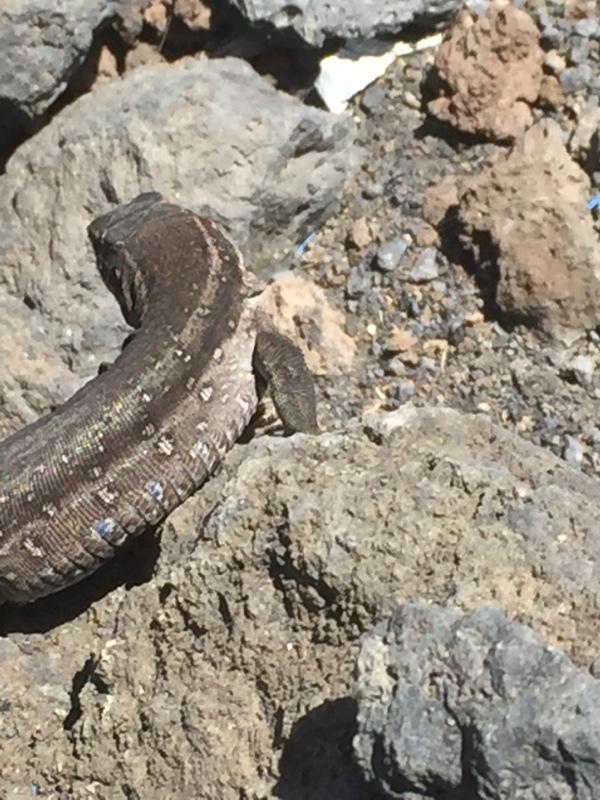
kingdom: Animalia
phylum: Chordata
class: Squamata
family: Lacertidae
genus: Gallotia
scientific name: Gallotia galloti
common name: Gallot's lizard
